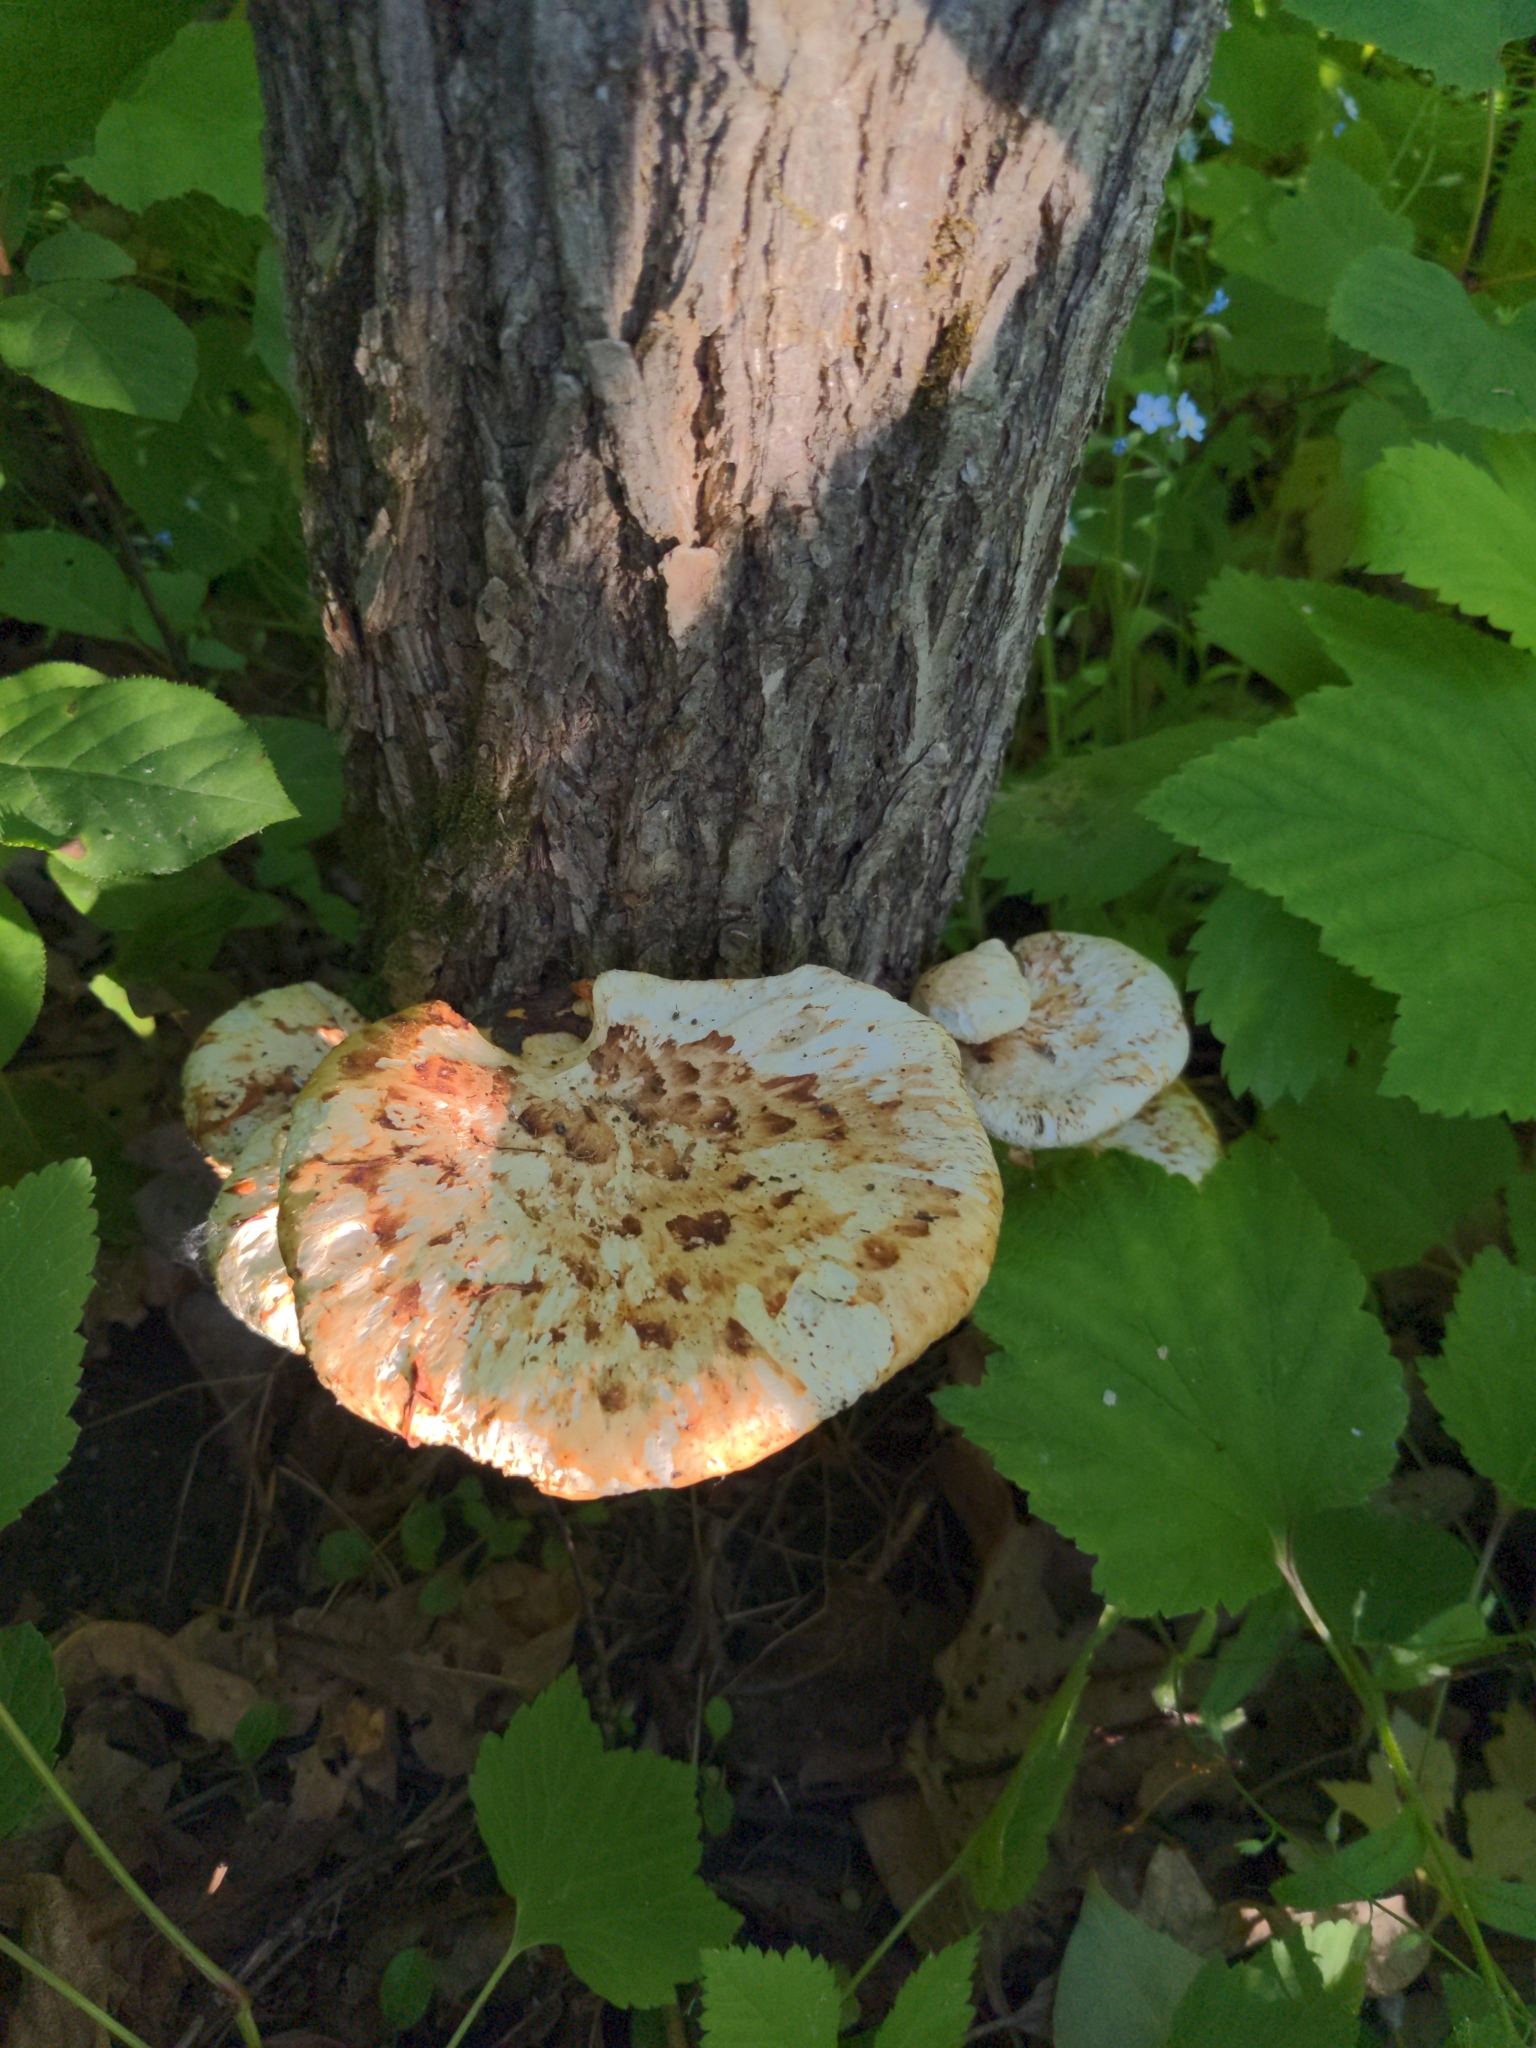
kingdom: Fungi
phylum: Basidiomycota
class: Agaricomycetes
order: Polyporales
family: Polyporaceae
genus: Cerioporus
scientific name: Cerioporus squamosus
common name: Dryad's saddle
